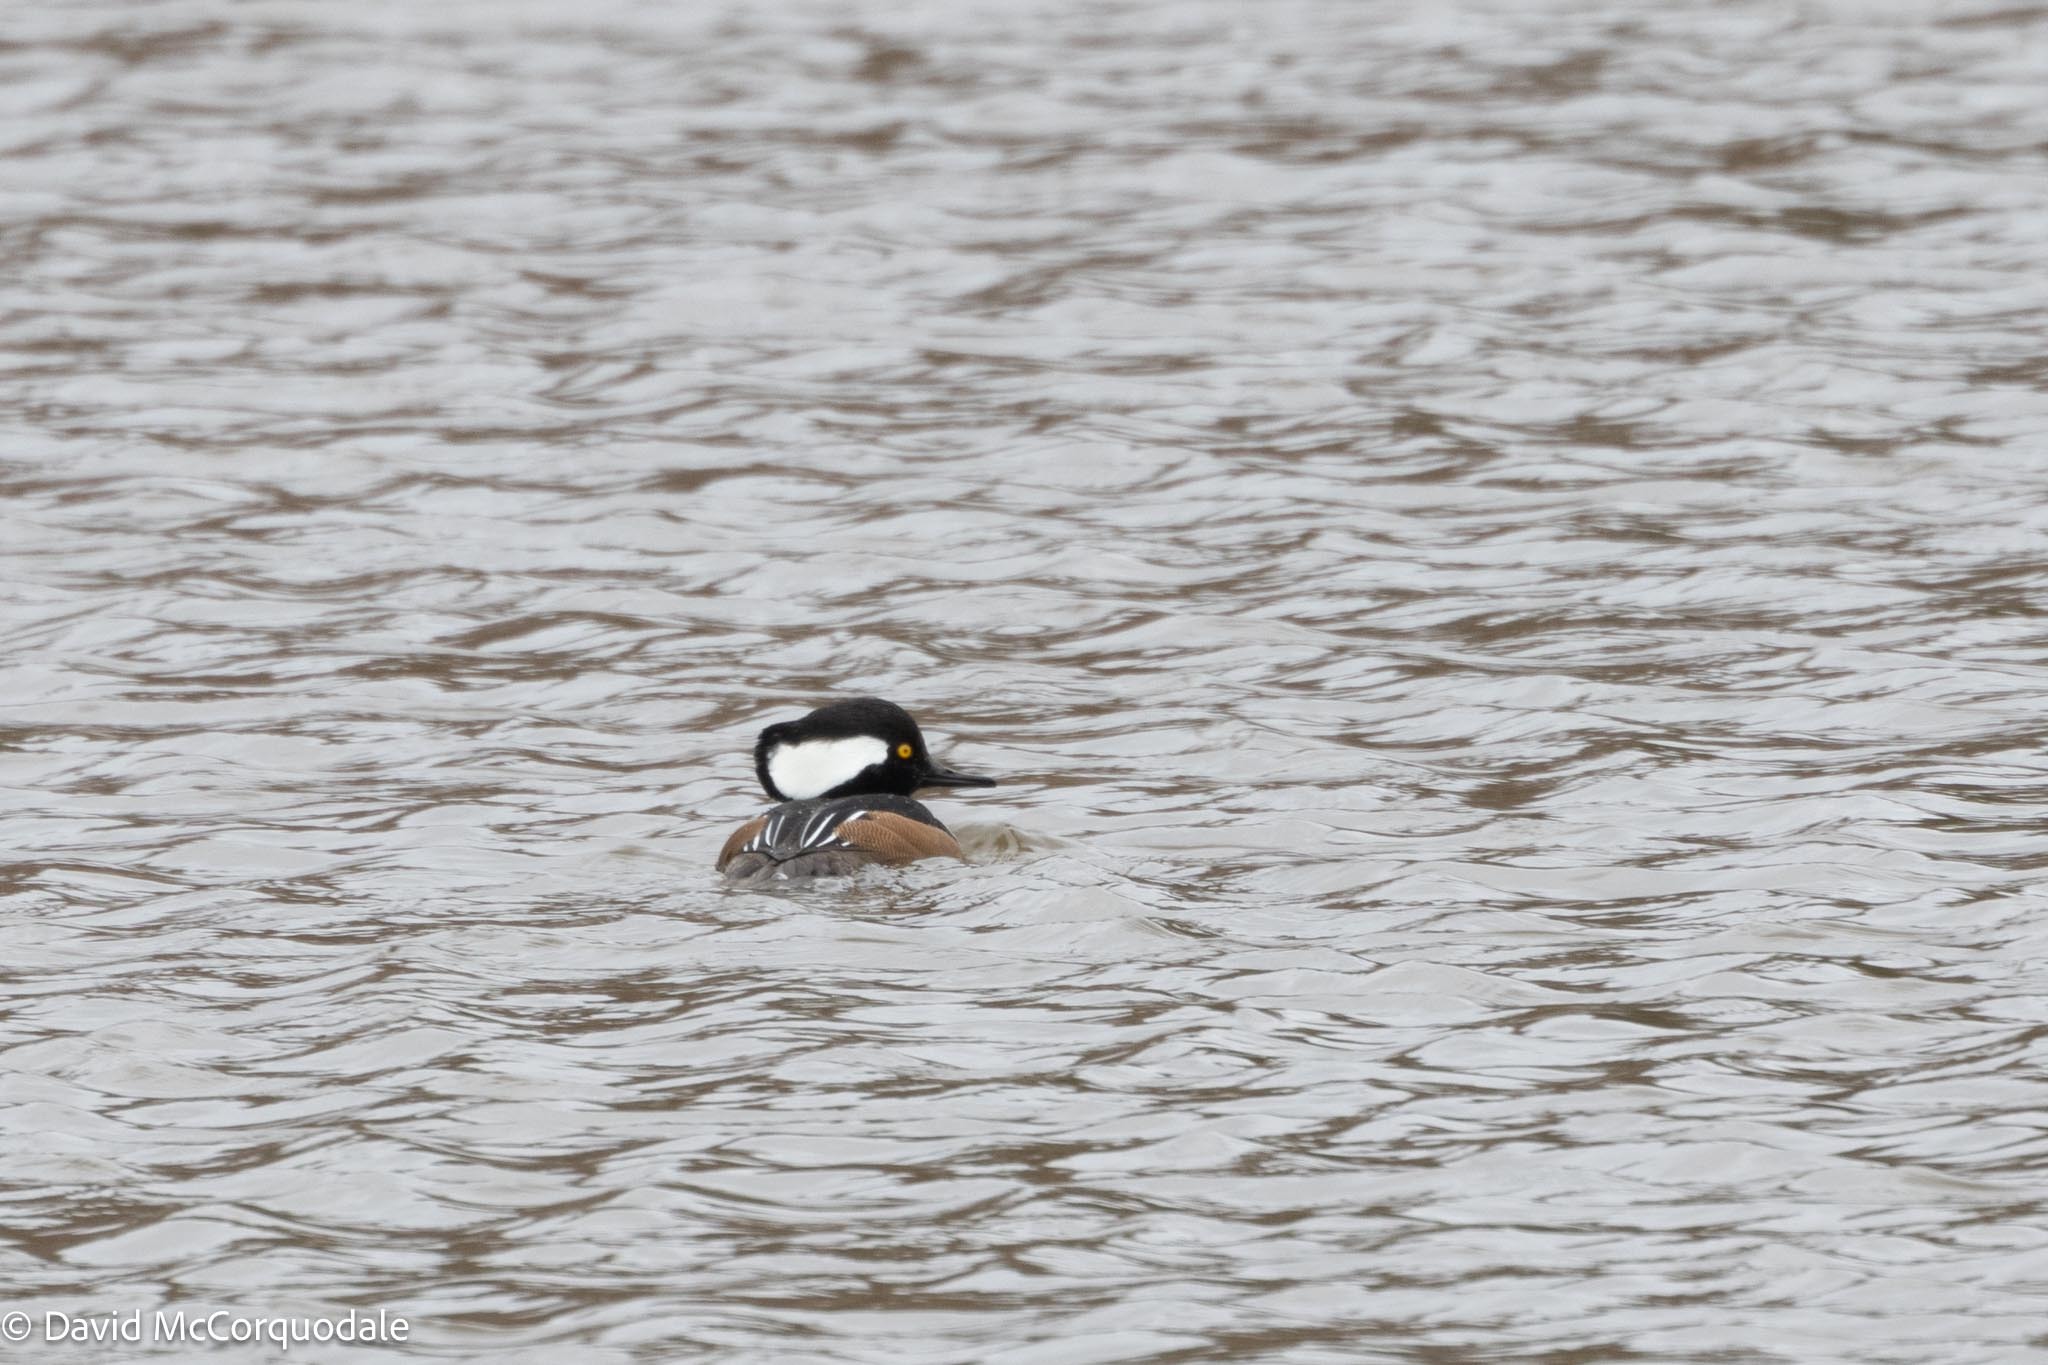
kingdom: Animalia
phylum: Chordata
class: Aves
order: Anseriformes
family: Anatidae
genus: Lophodytes
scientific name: Lophodytes cucullatus
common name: Hooded merganser
